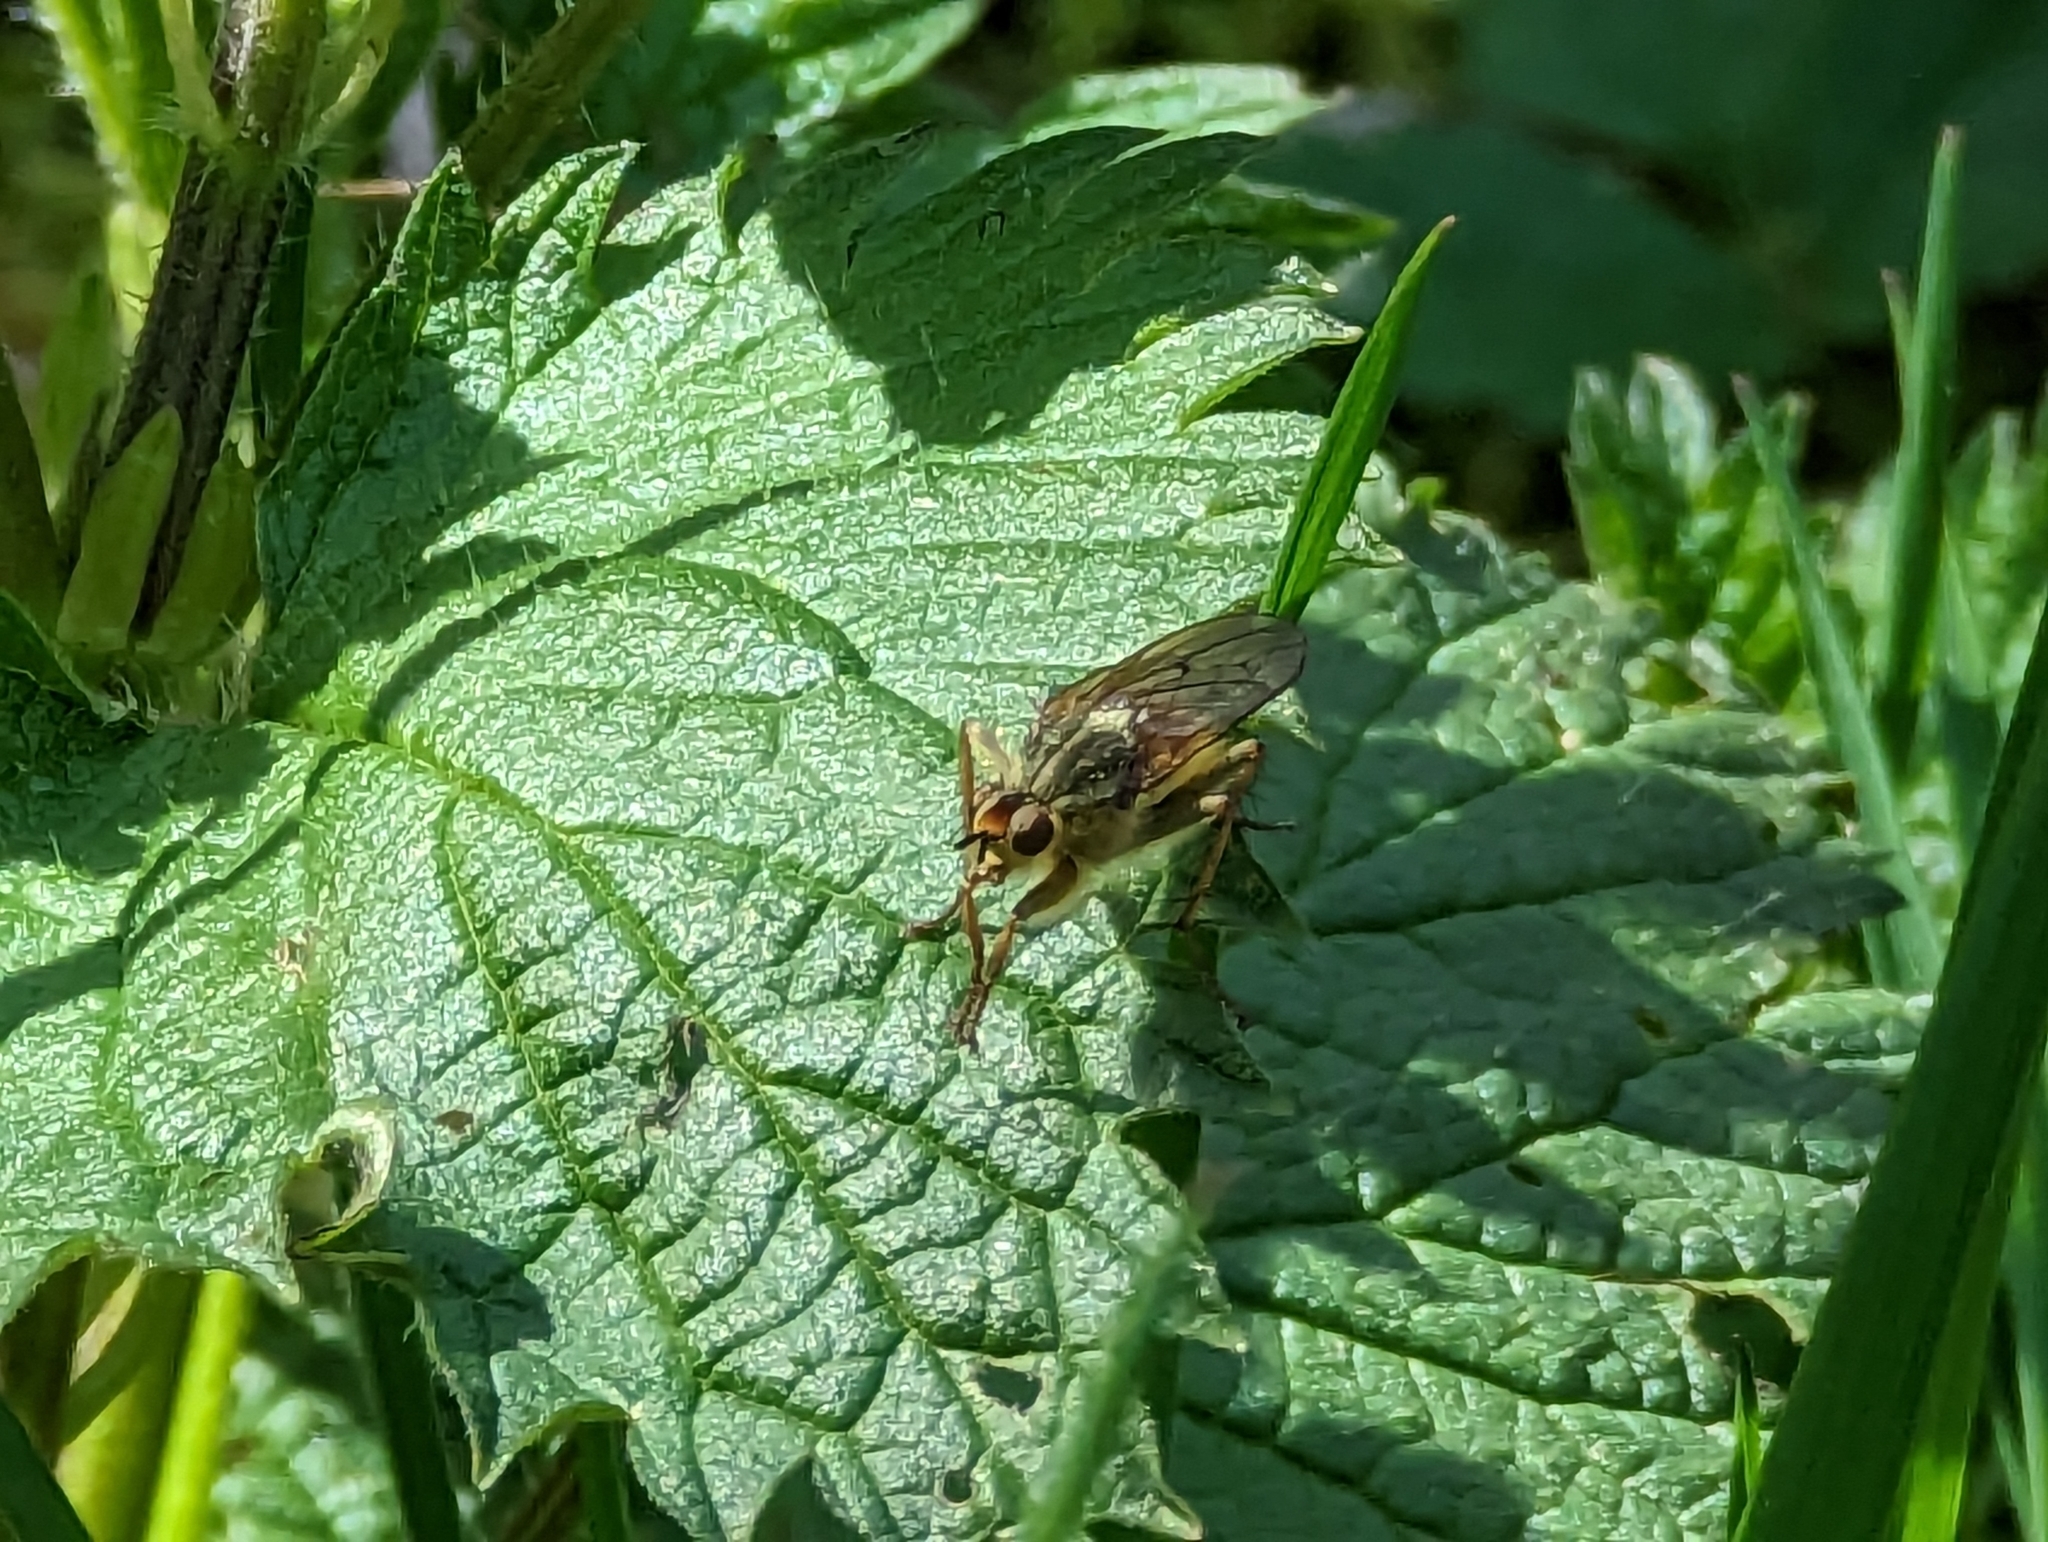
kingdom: Animalia
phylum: Arthropoda
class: Insecta
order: Diptera
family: Scathophagidae
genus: Scathophaga
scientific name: Scathophaga stercoraria
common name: Yellow dung fly
